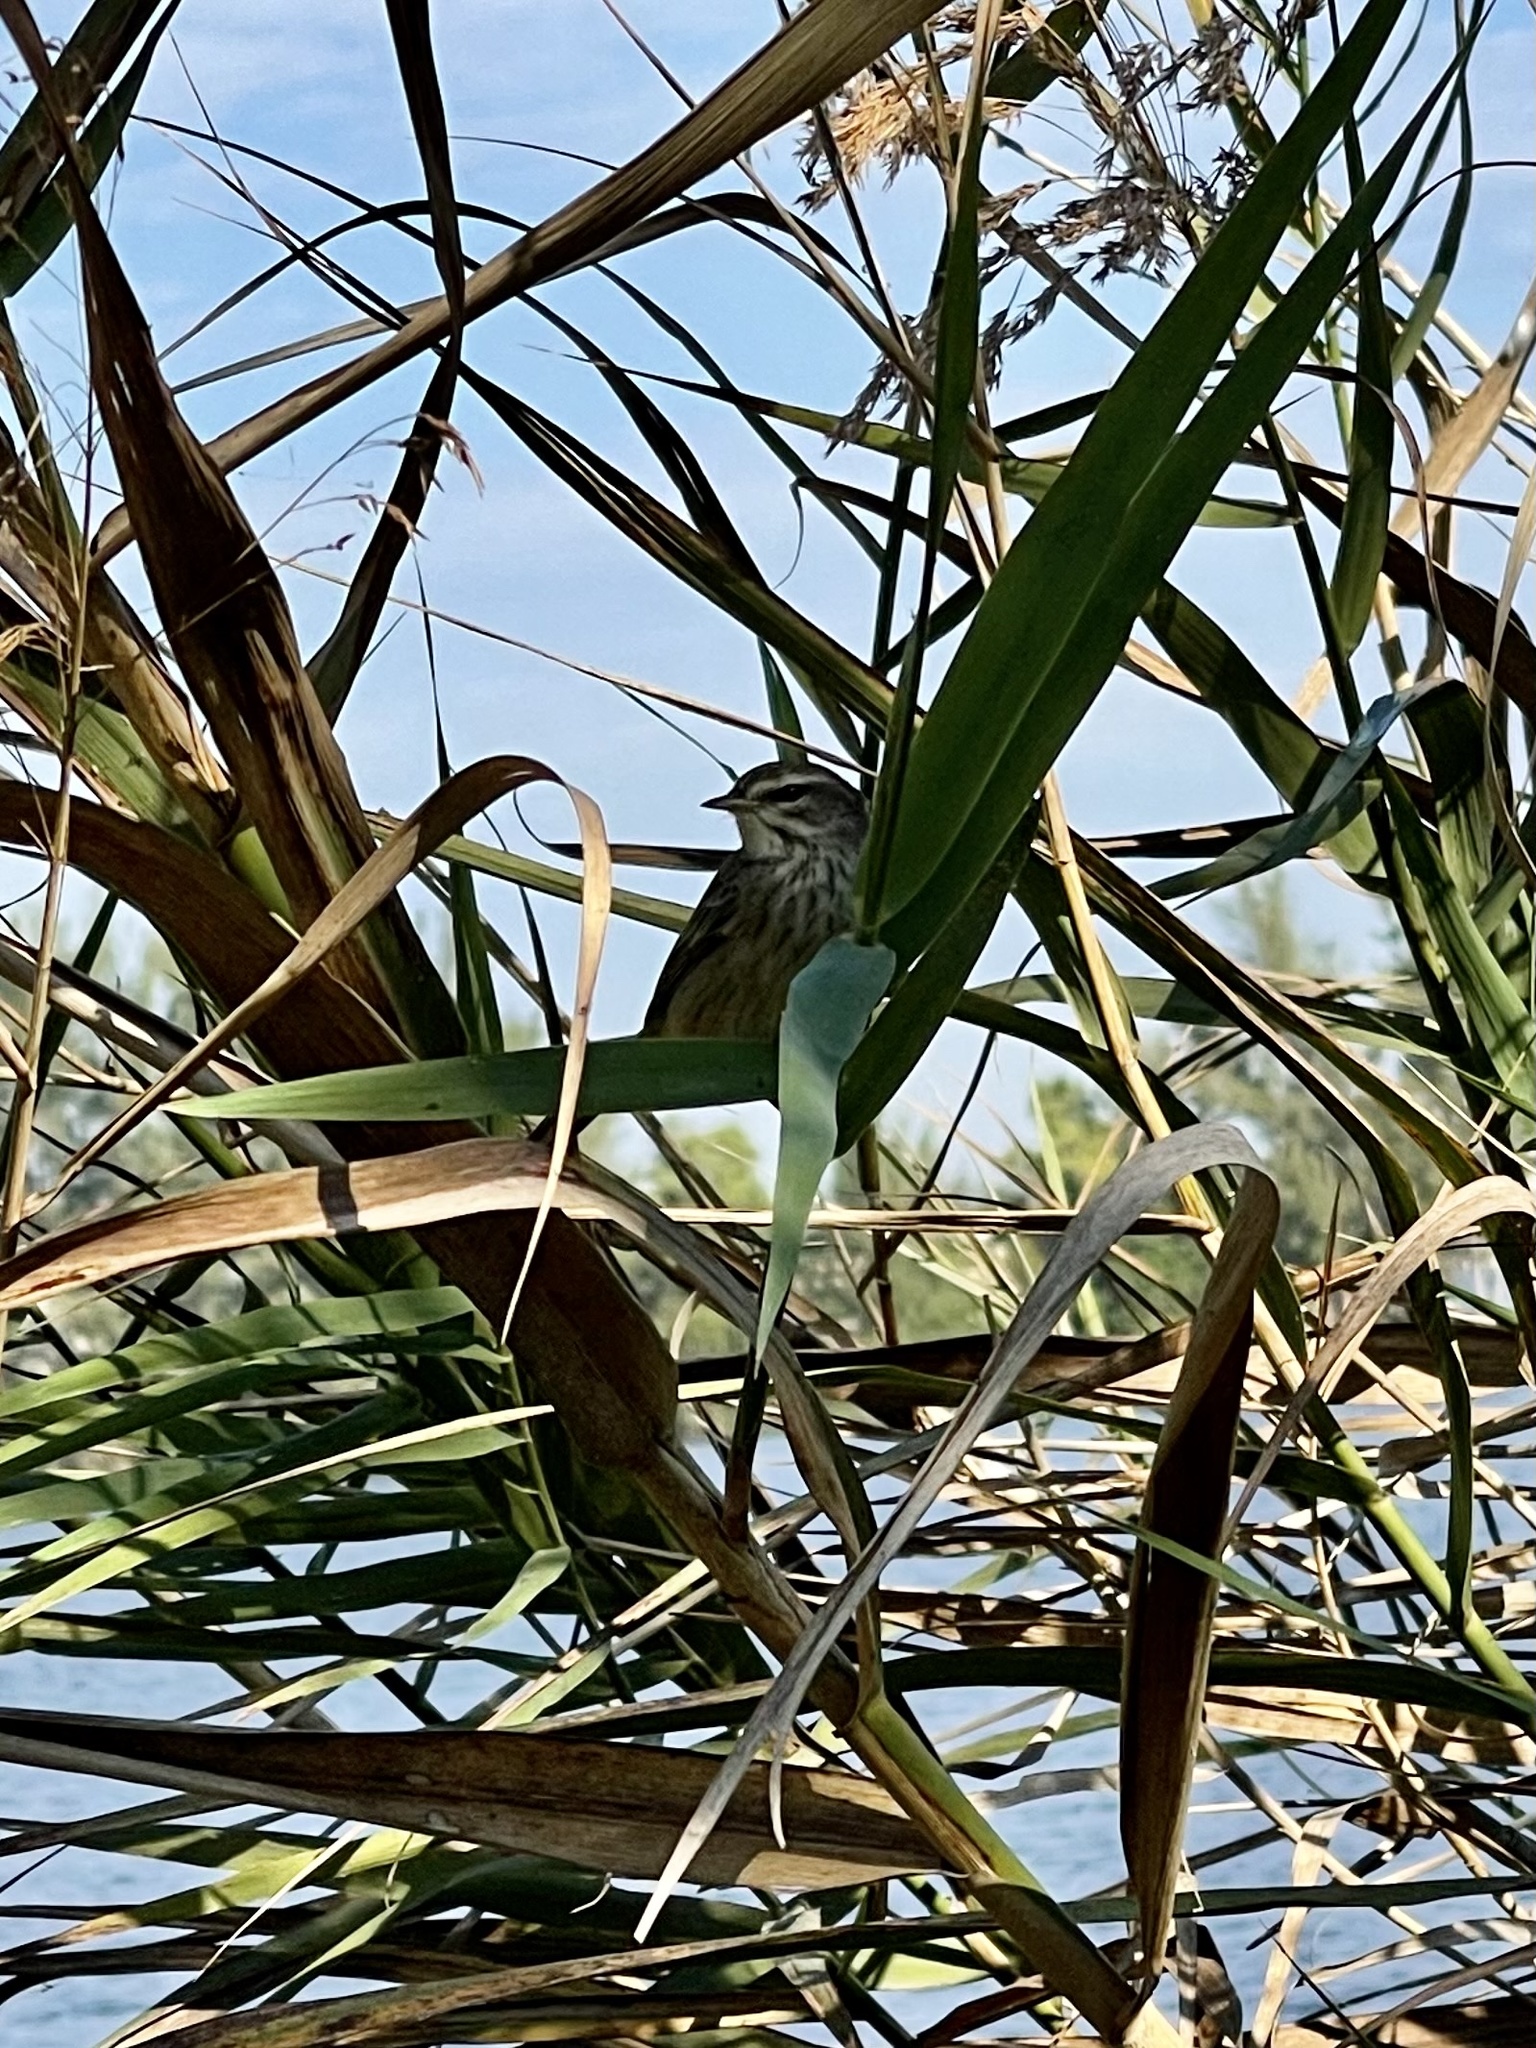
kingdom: Animalia
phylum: Chordata
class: Aves
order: Passeriformes
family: Parulidae
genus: Setophaga
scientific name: Setophaga palmarum
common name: Palm warbler
